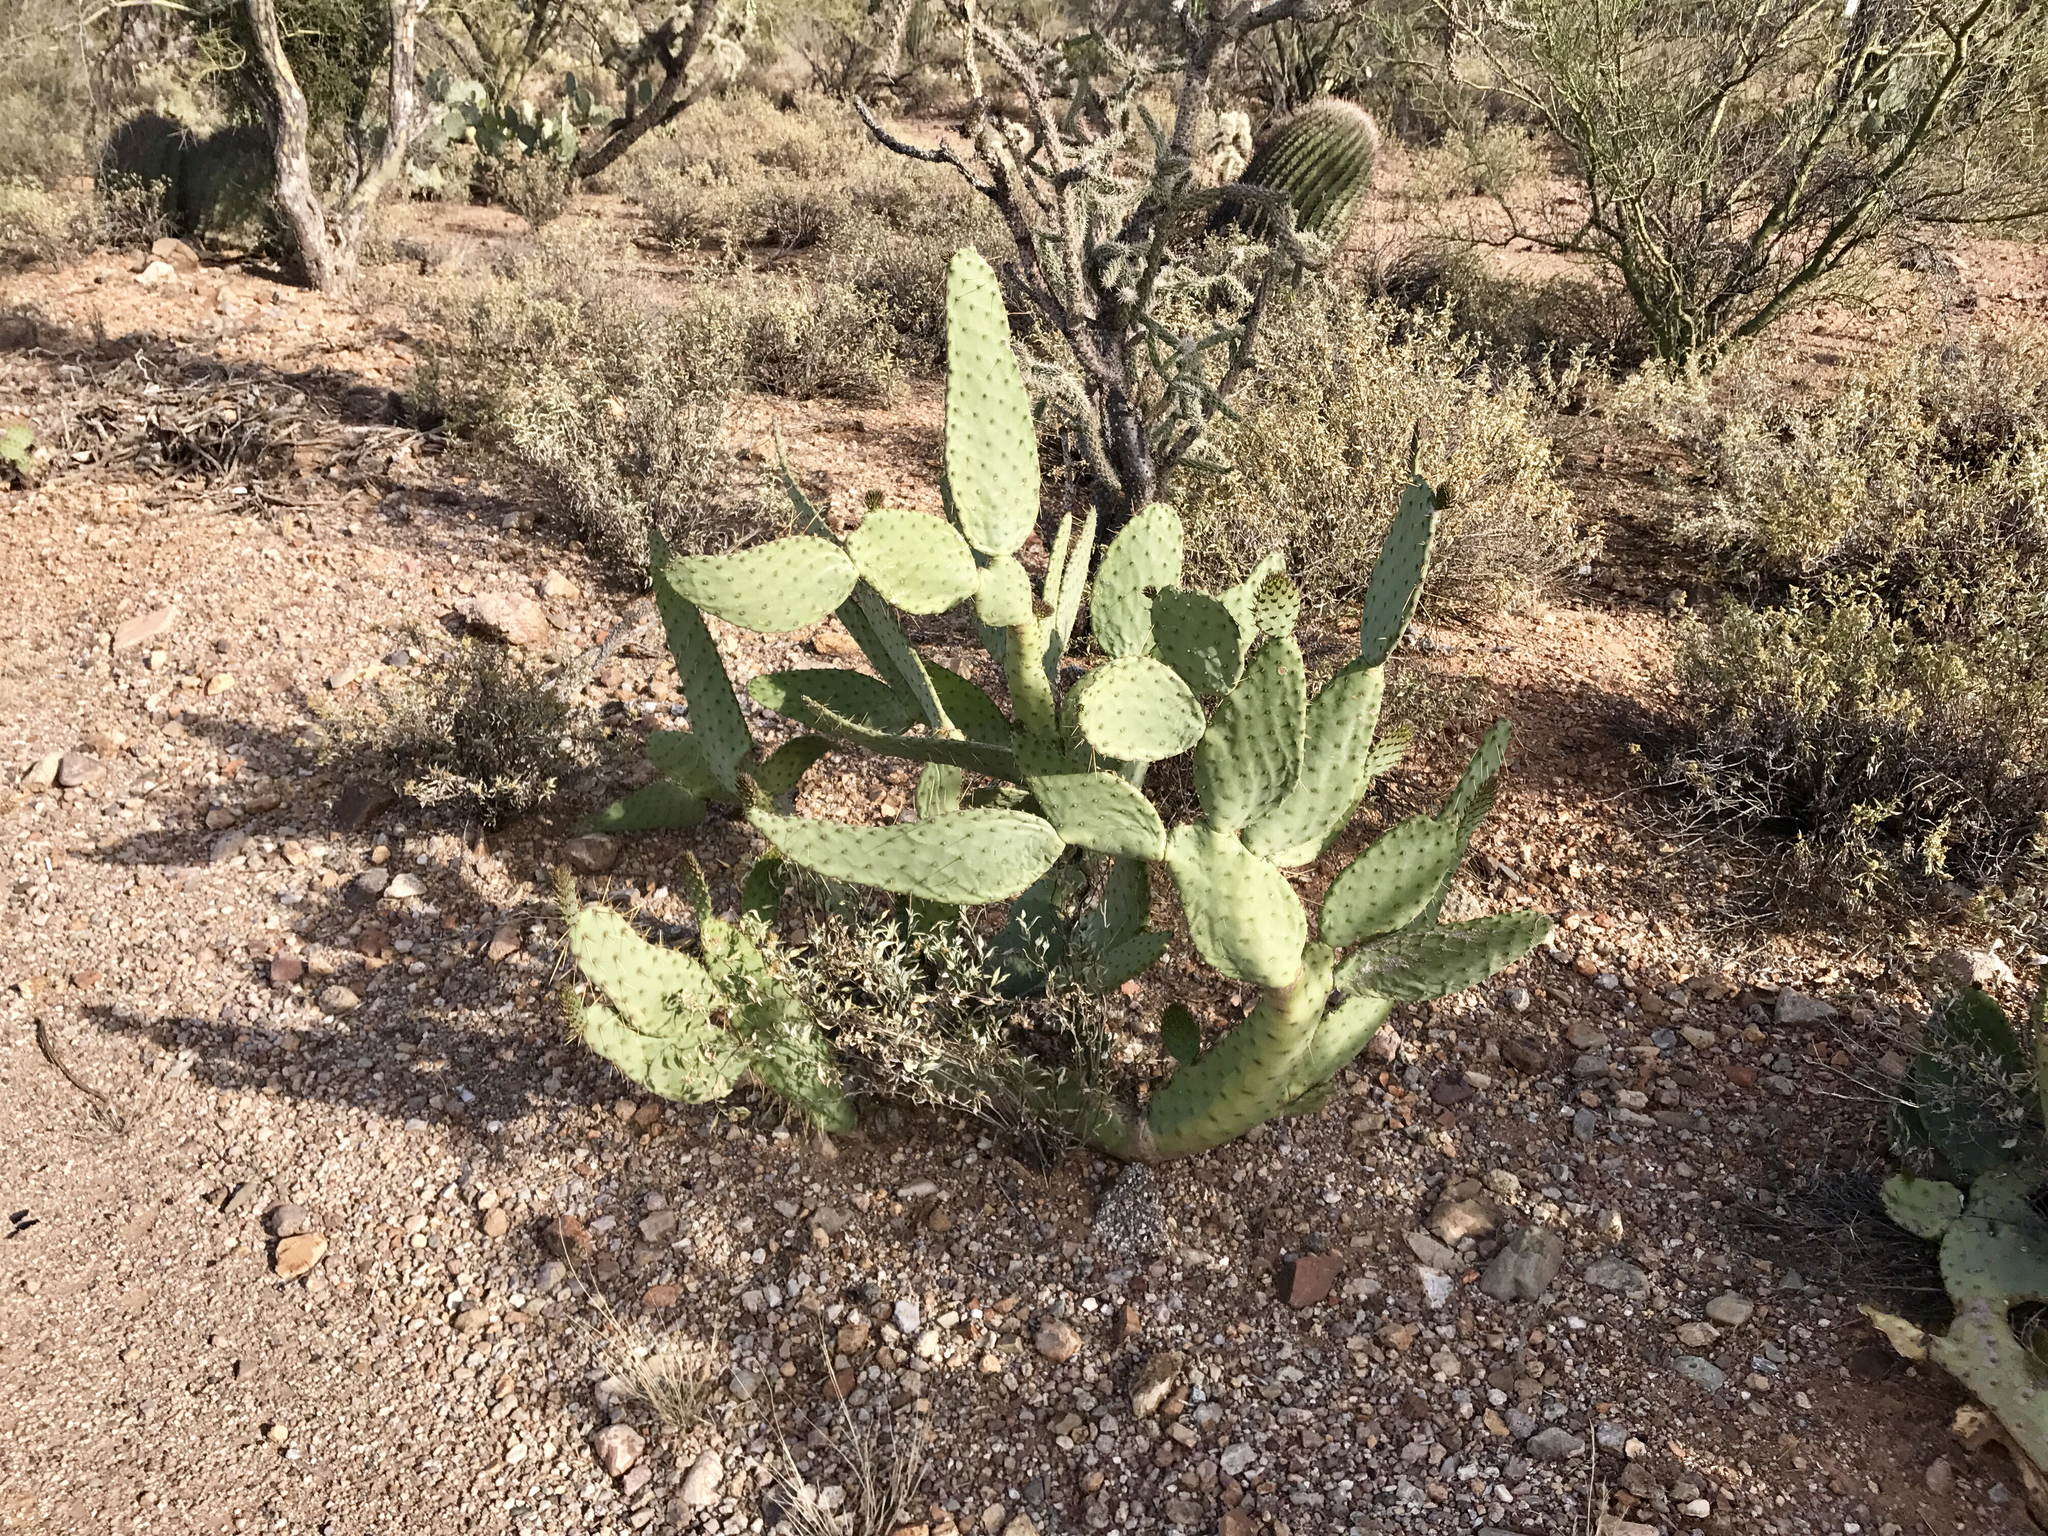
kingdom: Plantae
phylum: Tracheophyta
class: Magnoliopsida
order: Caryophyllales
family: Cactaceae
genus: Opuntia
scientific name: Opuntia engelmannii
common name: Cactus-apple
